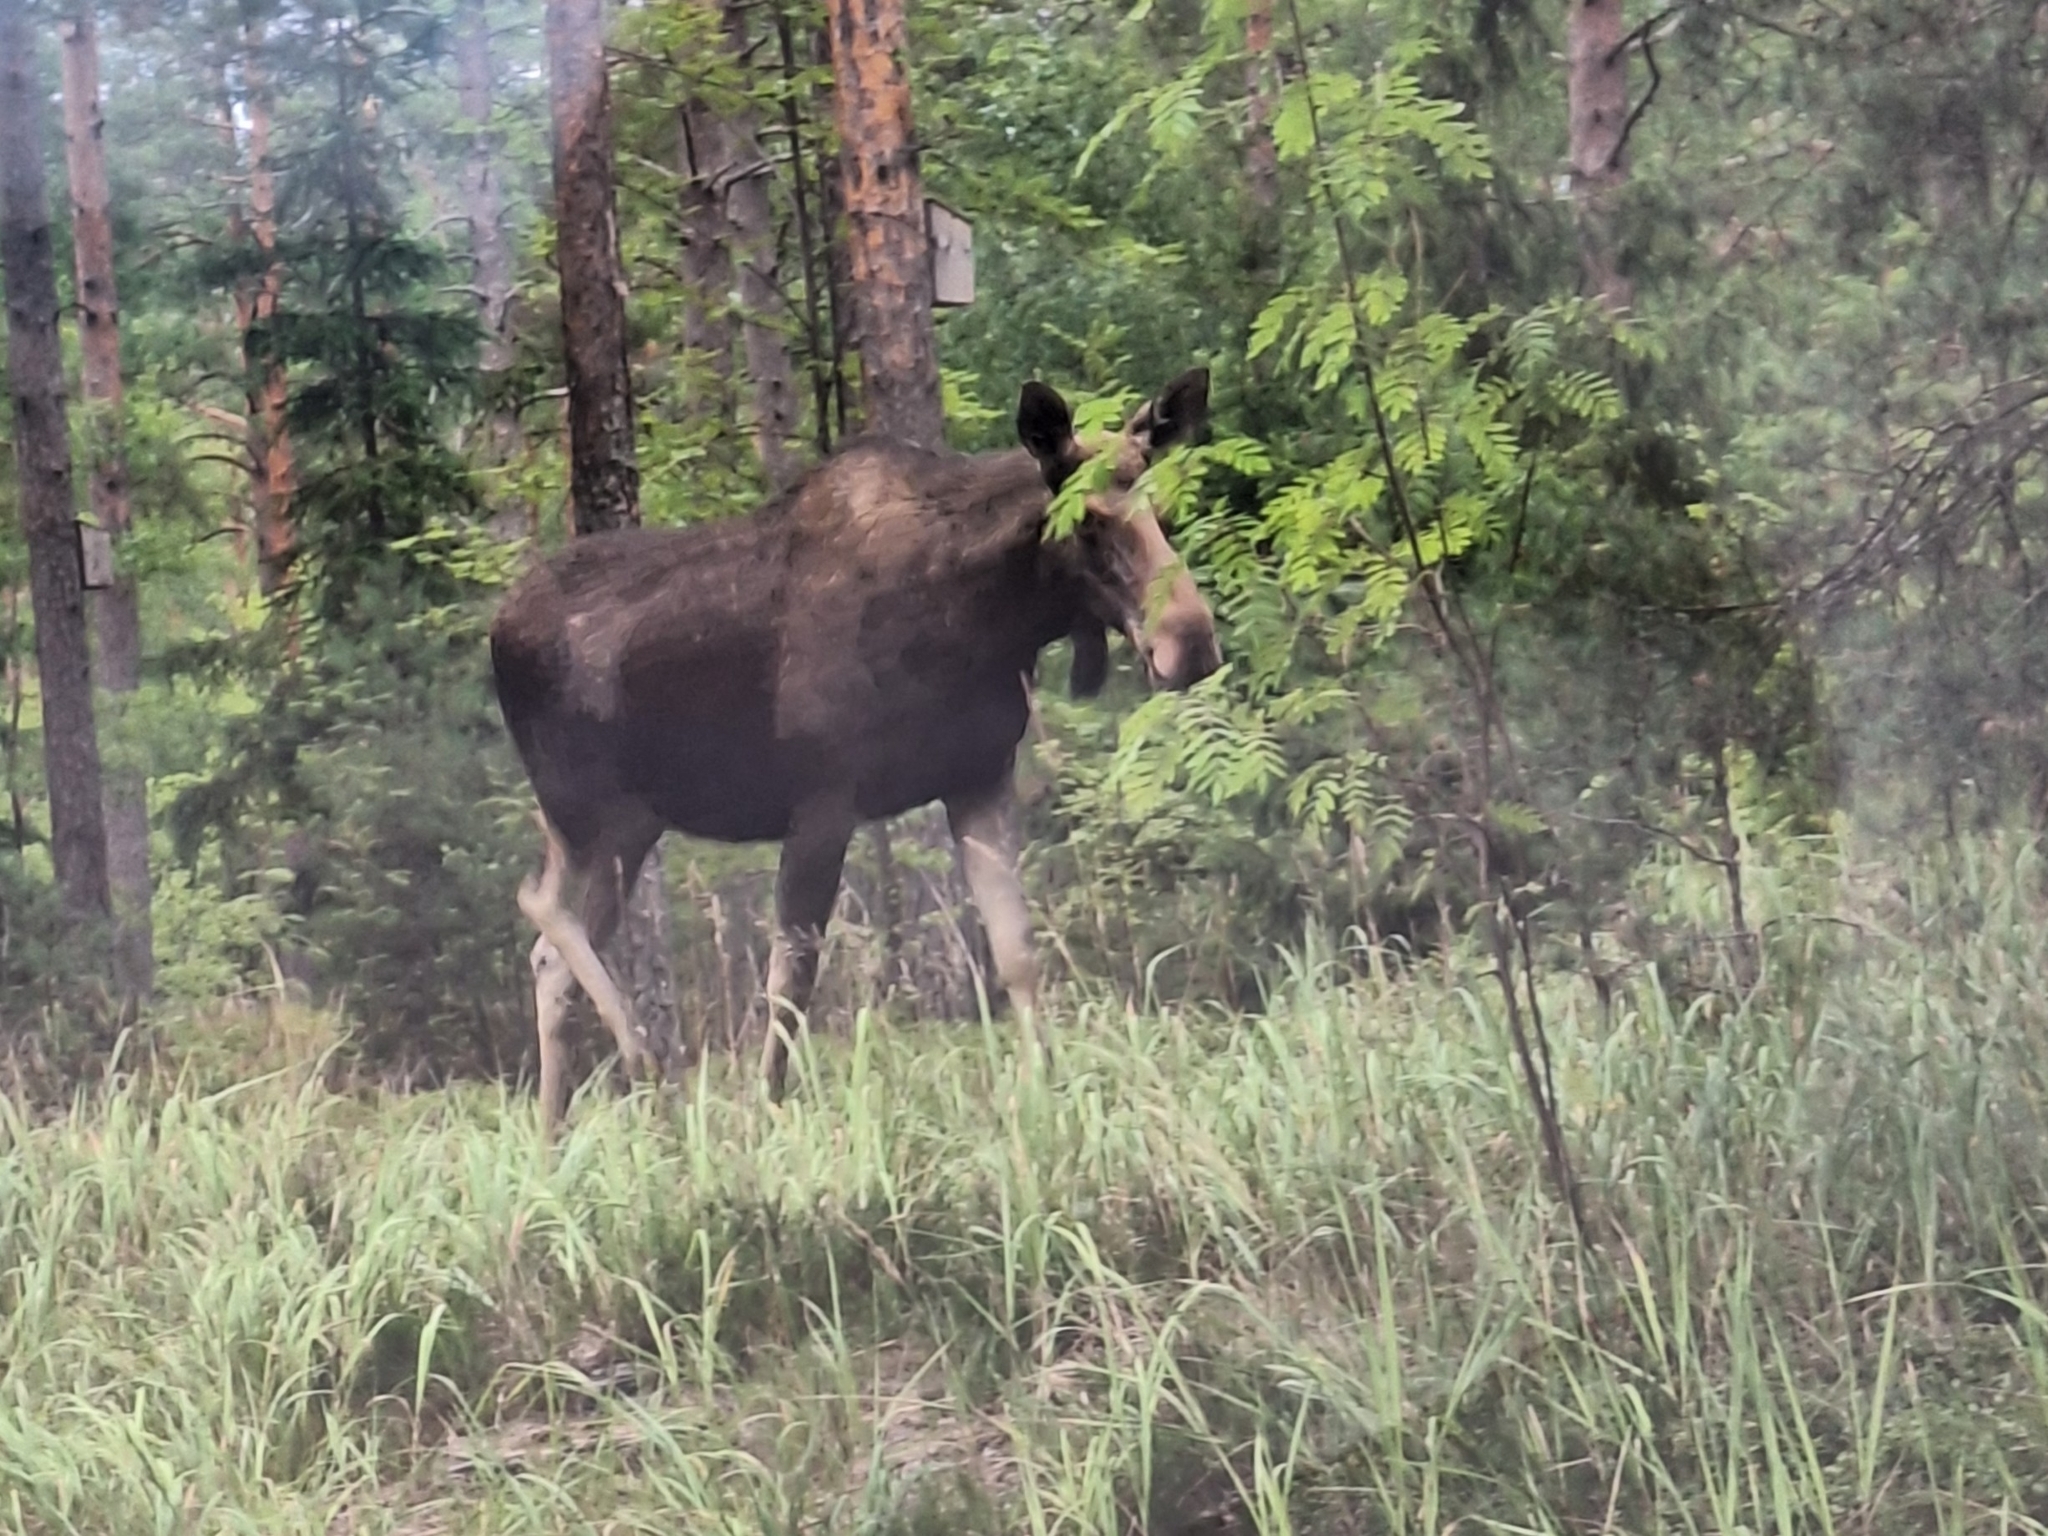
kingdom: Animalia
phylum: Chordata
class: Mammalia
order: Artiodactyla
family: Cervidae
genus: Alces
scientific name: Alces alces
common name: Moose
